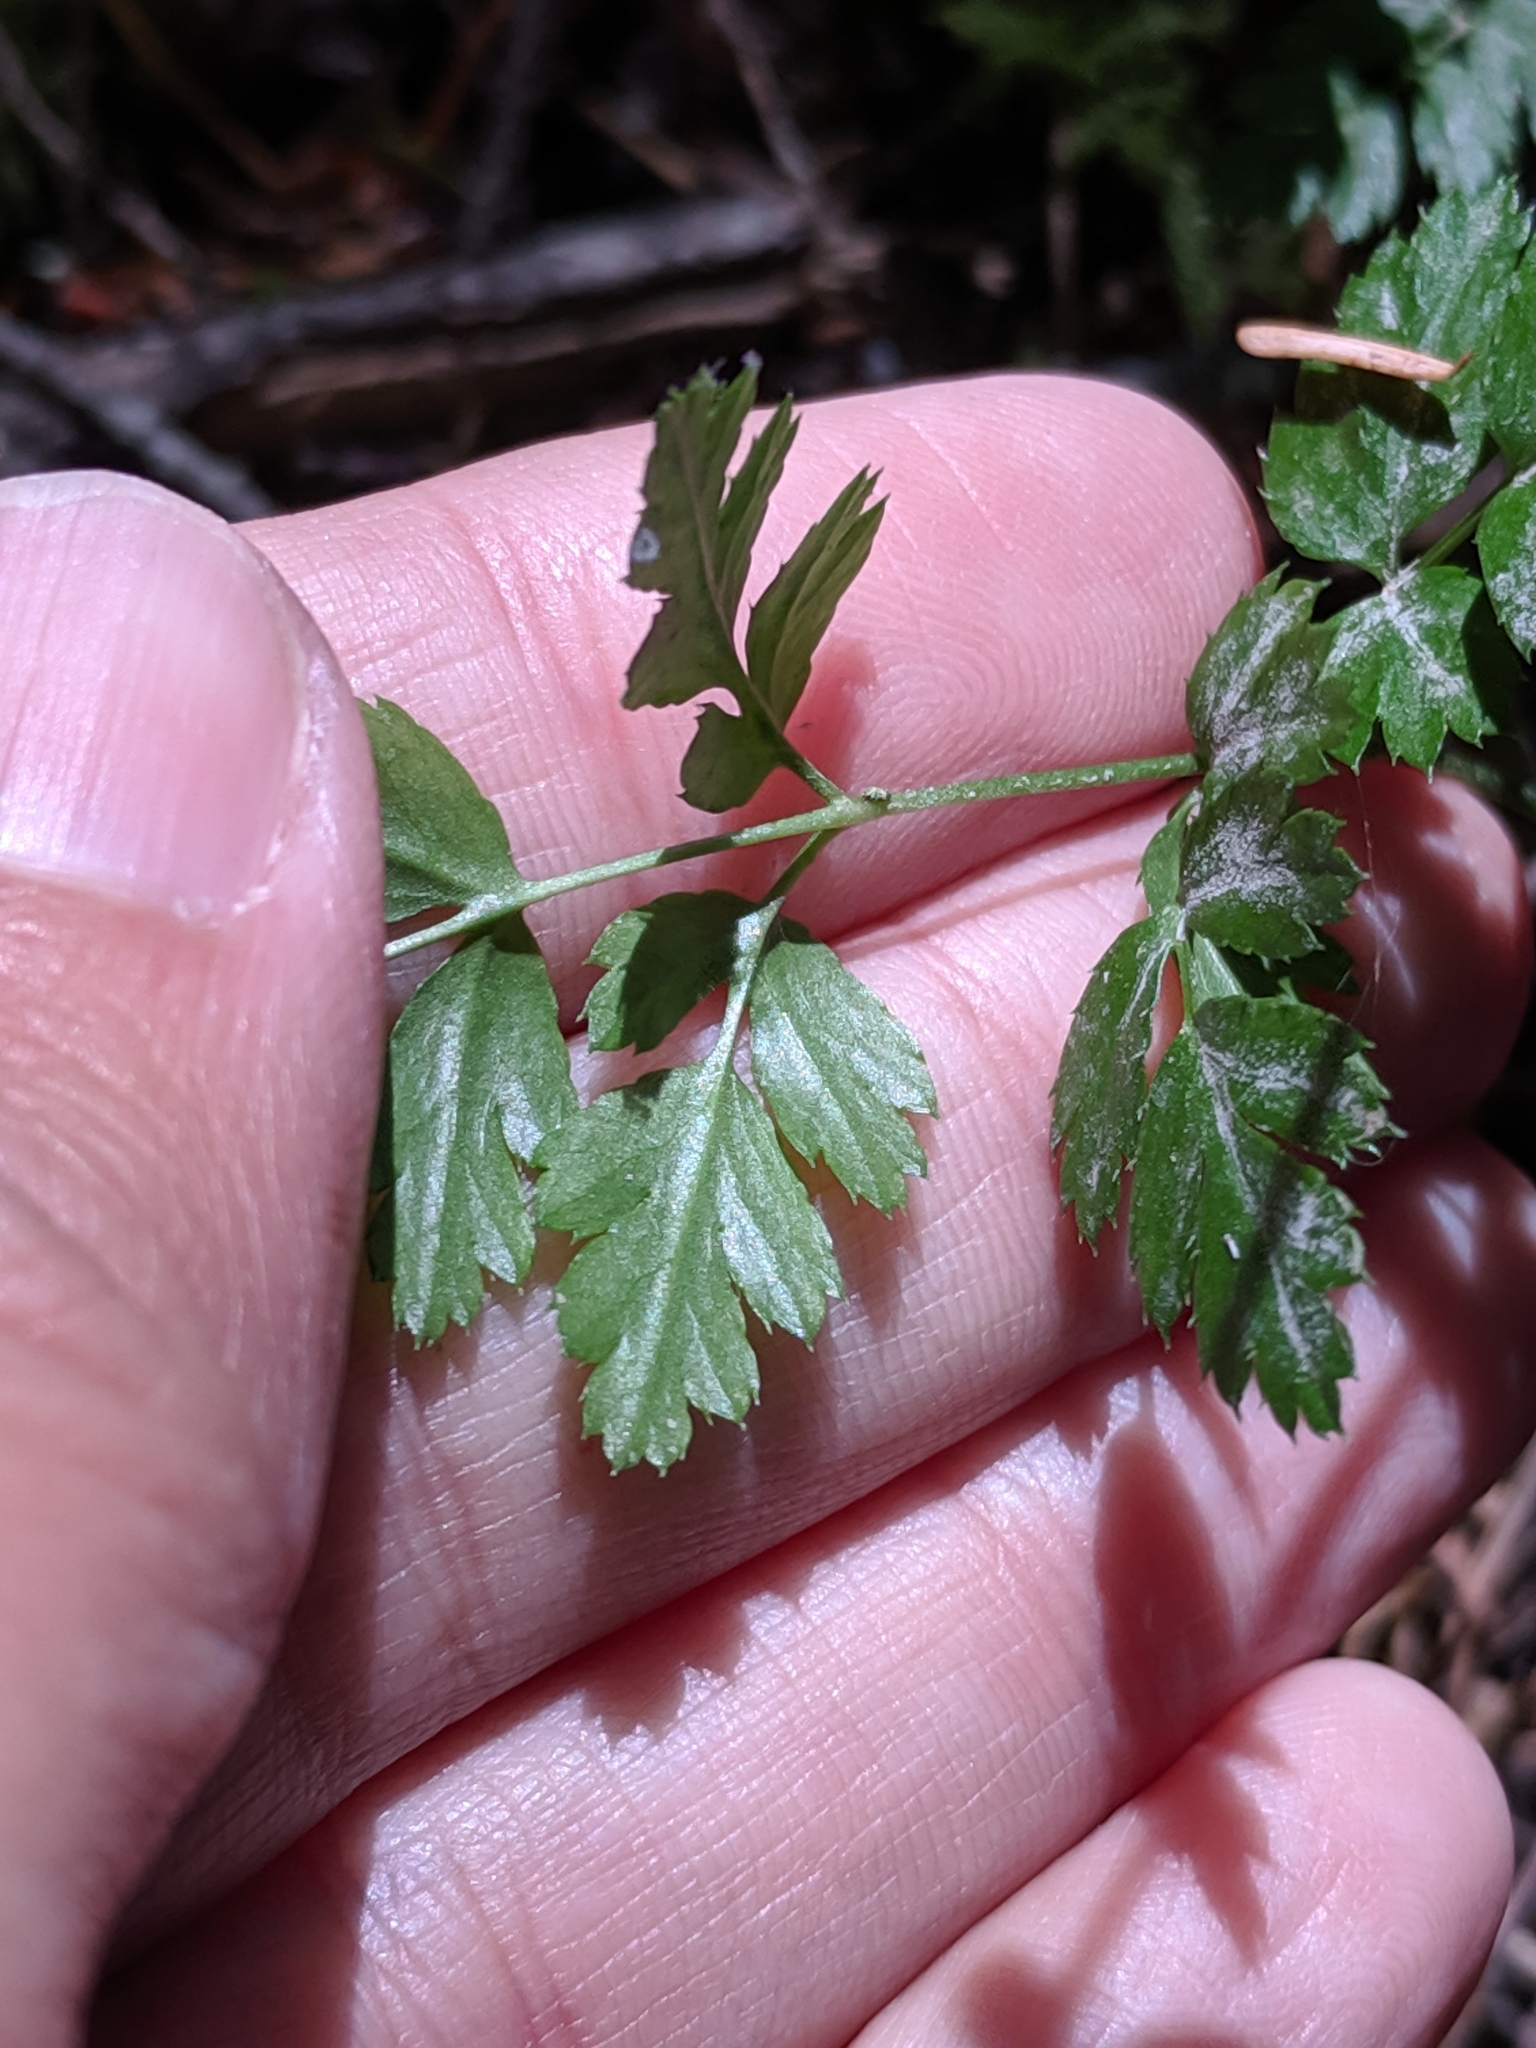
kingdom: Plantae
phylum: Tracheophyta
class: Magnoliopsida
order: Ranunculales
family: Ranunculaceae
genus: Coptis
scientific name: Coptis aspleniifolia
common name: Fern-leaved goldthread
